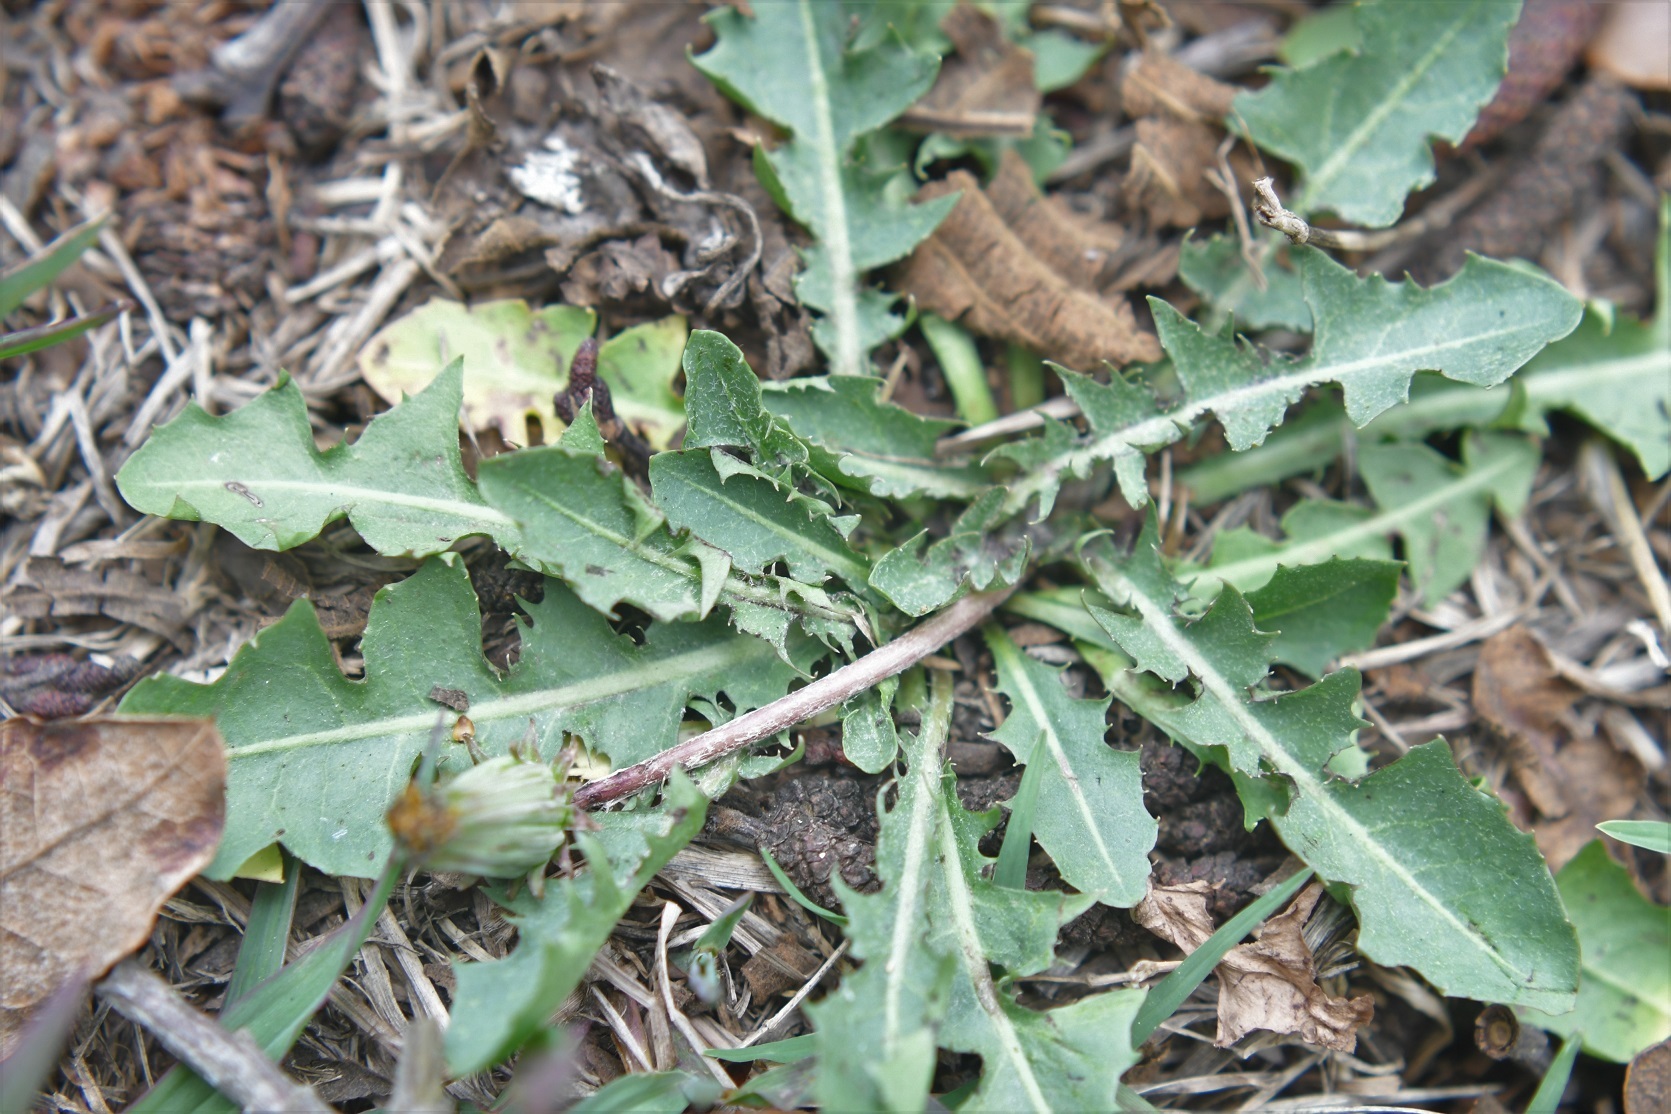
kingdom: Plantae
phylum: Tracheophyta
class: Magnoliopsida
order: Asterales
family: Asteraceae
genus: Taraxacum
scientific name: Taraxacum officinale
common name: Common dandelion
